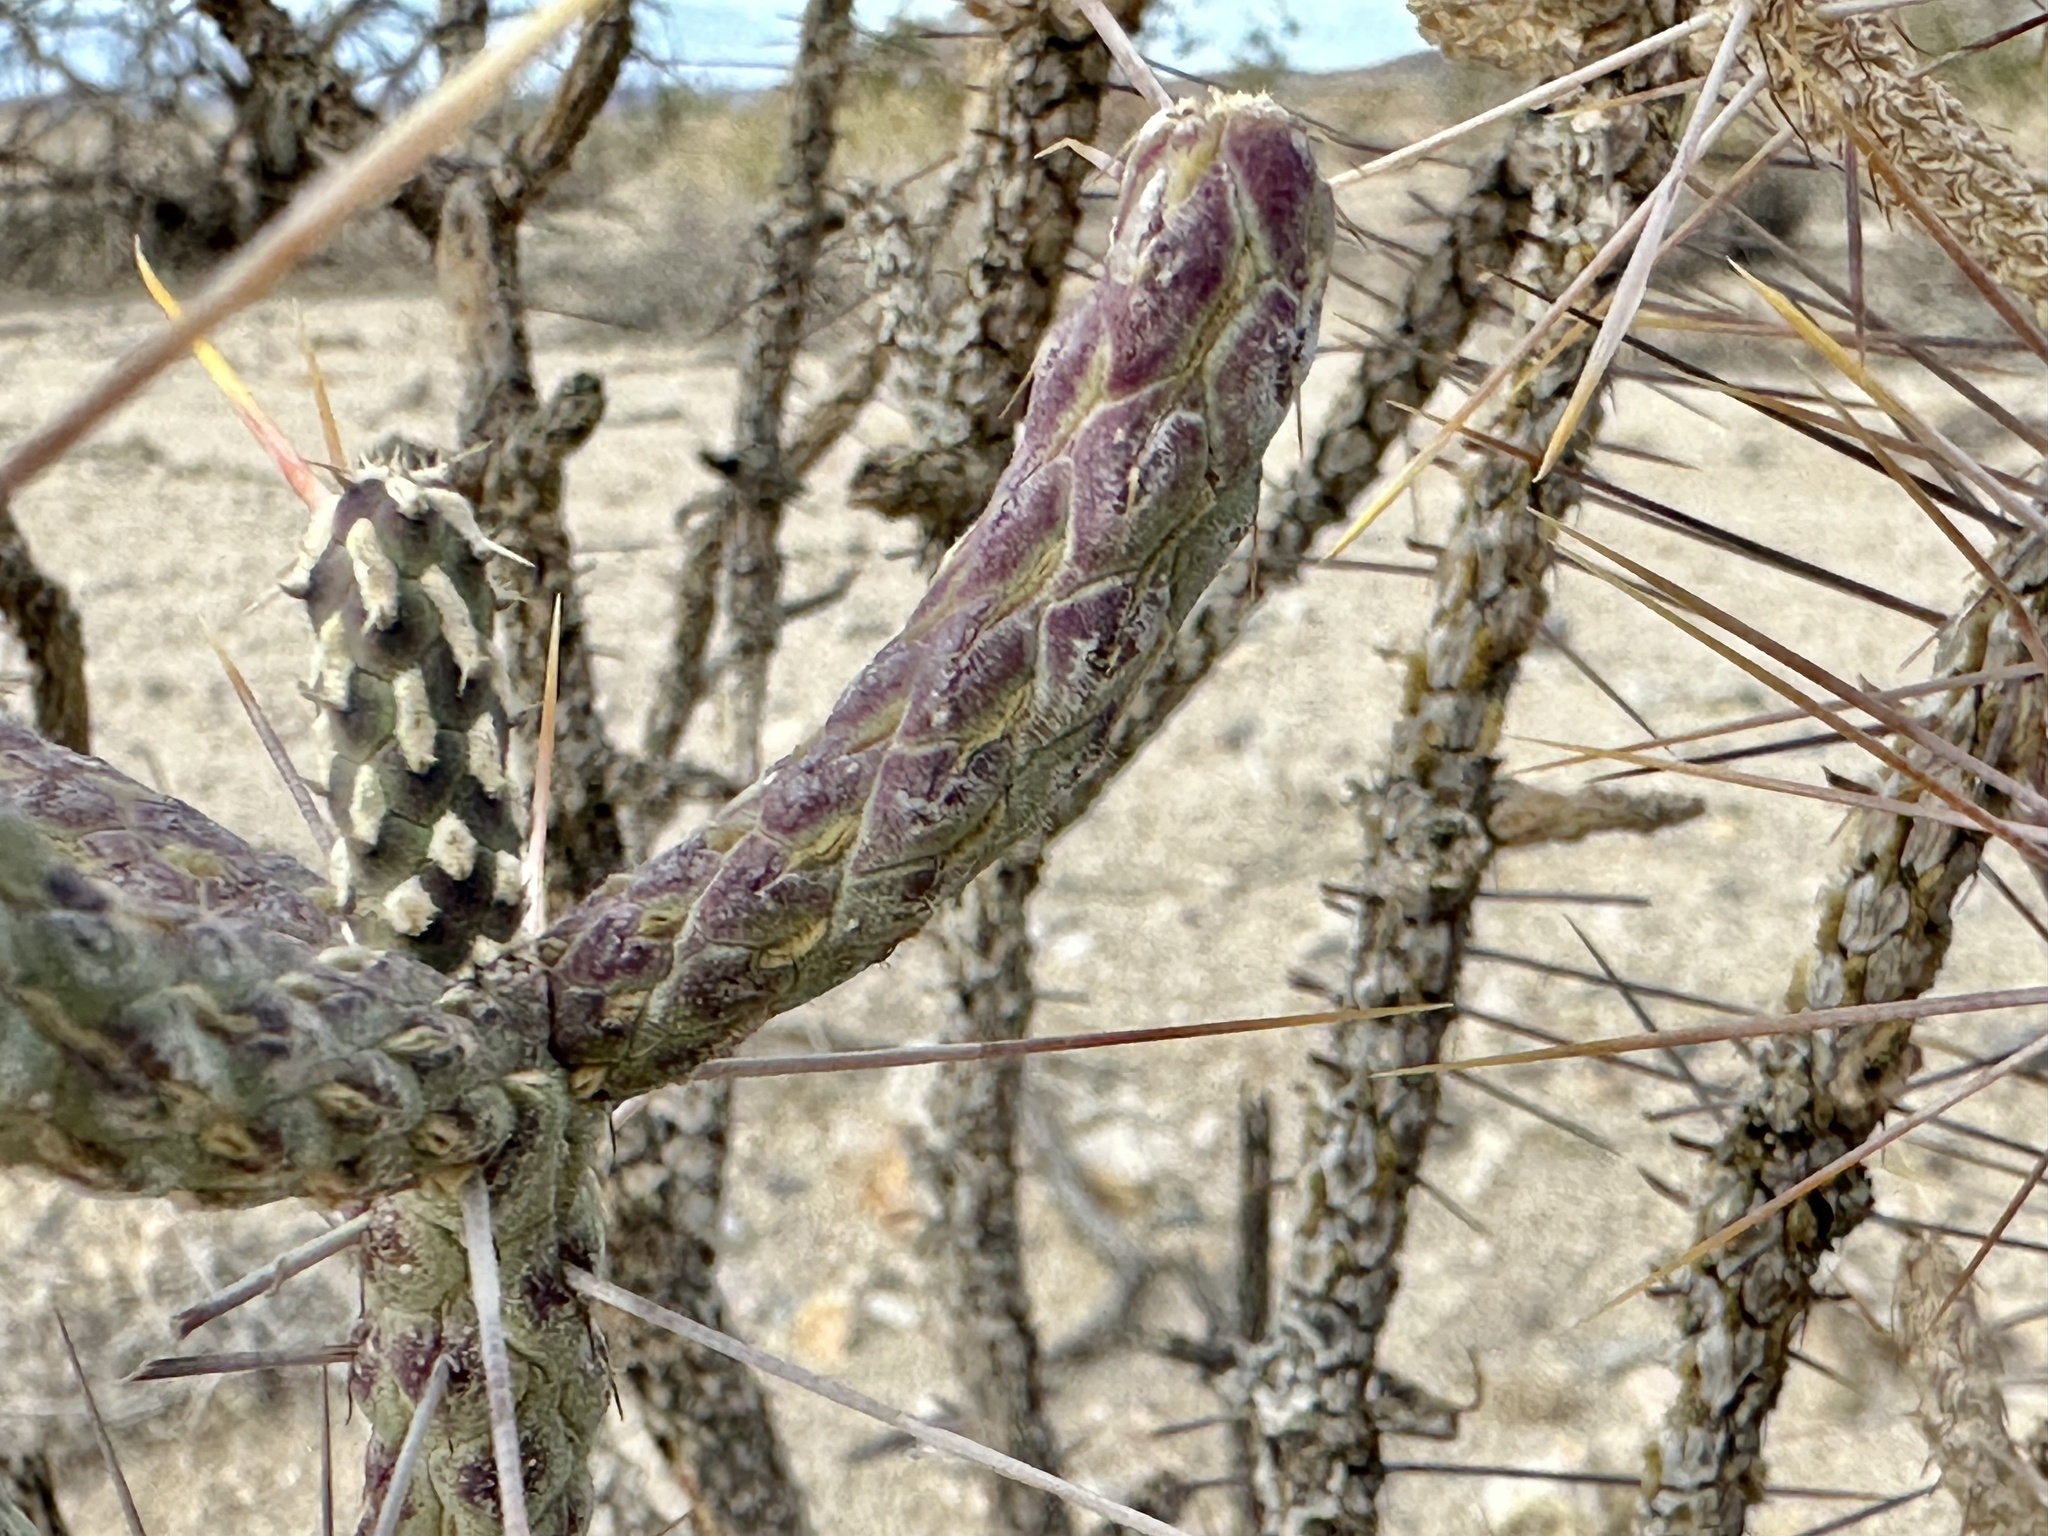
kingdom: Plantae
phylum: Tracheophyta
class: Magnoliopsida
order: Caryophyllales
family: Cactaceae
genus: Cylindropuntia
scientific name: Cylindropuntia ramosissima
